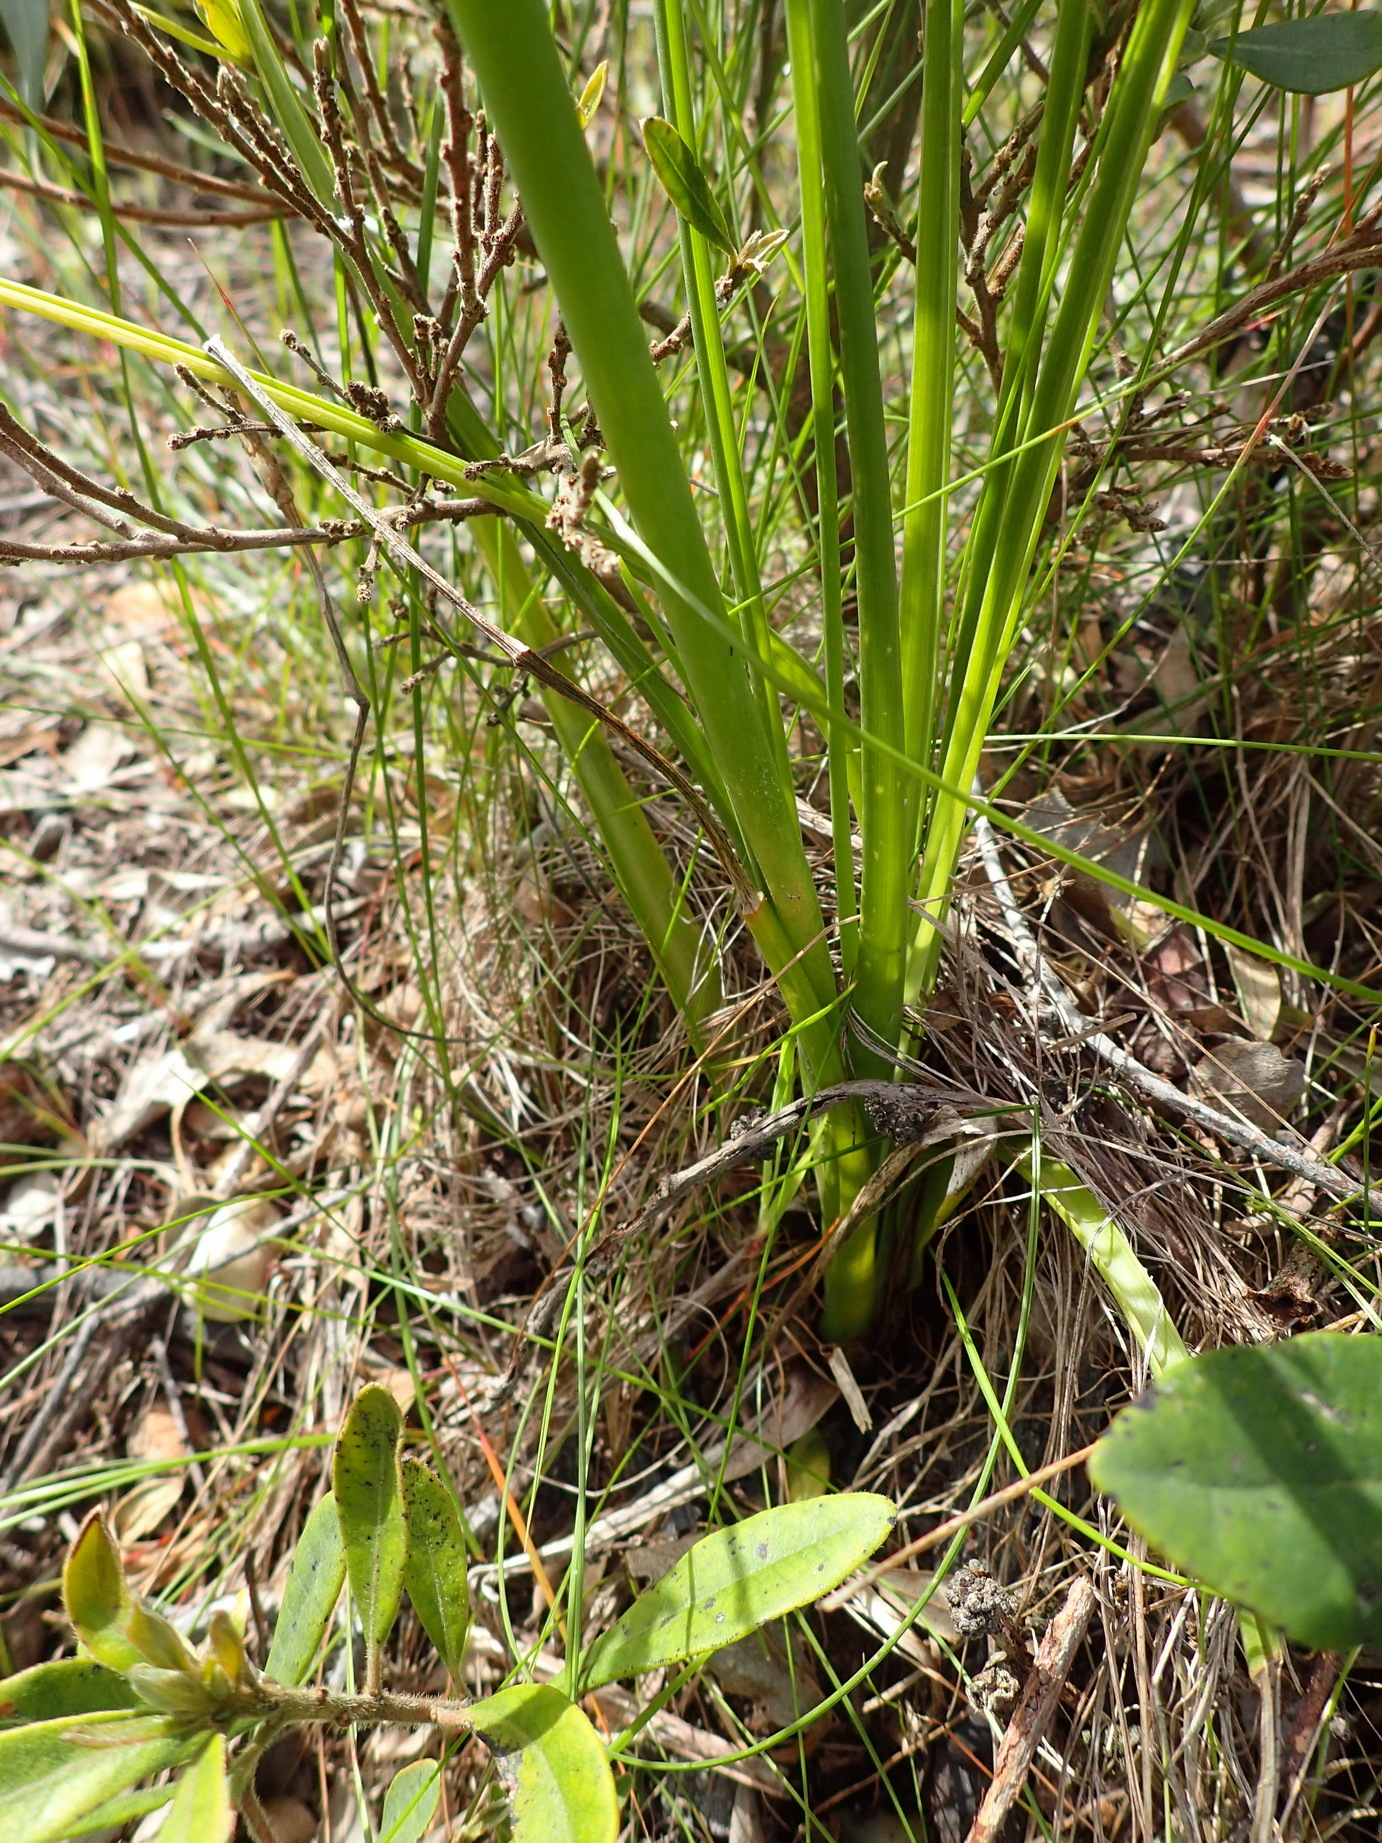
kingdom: Plantae
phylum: Tracheophyta
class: Liliopsida
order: Asparagales
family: Asparagaceae
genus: Albuca
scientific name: Albuca setosa
